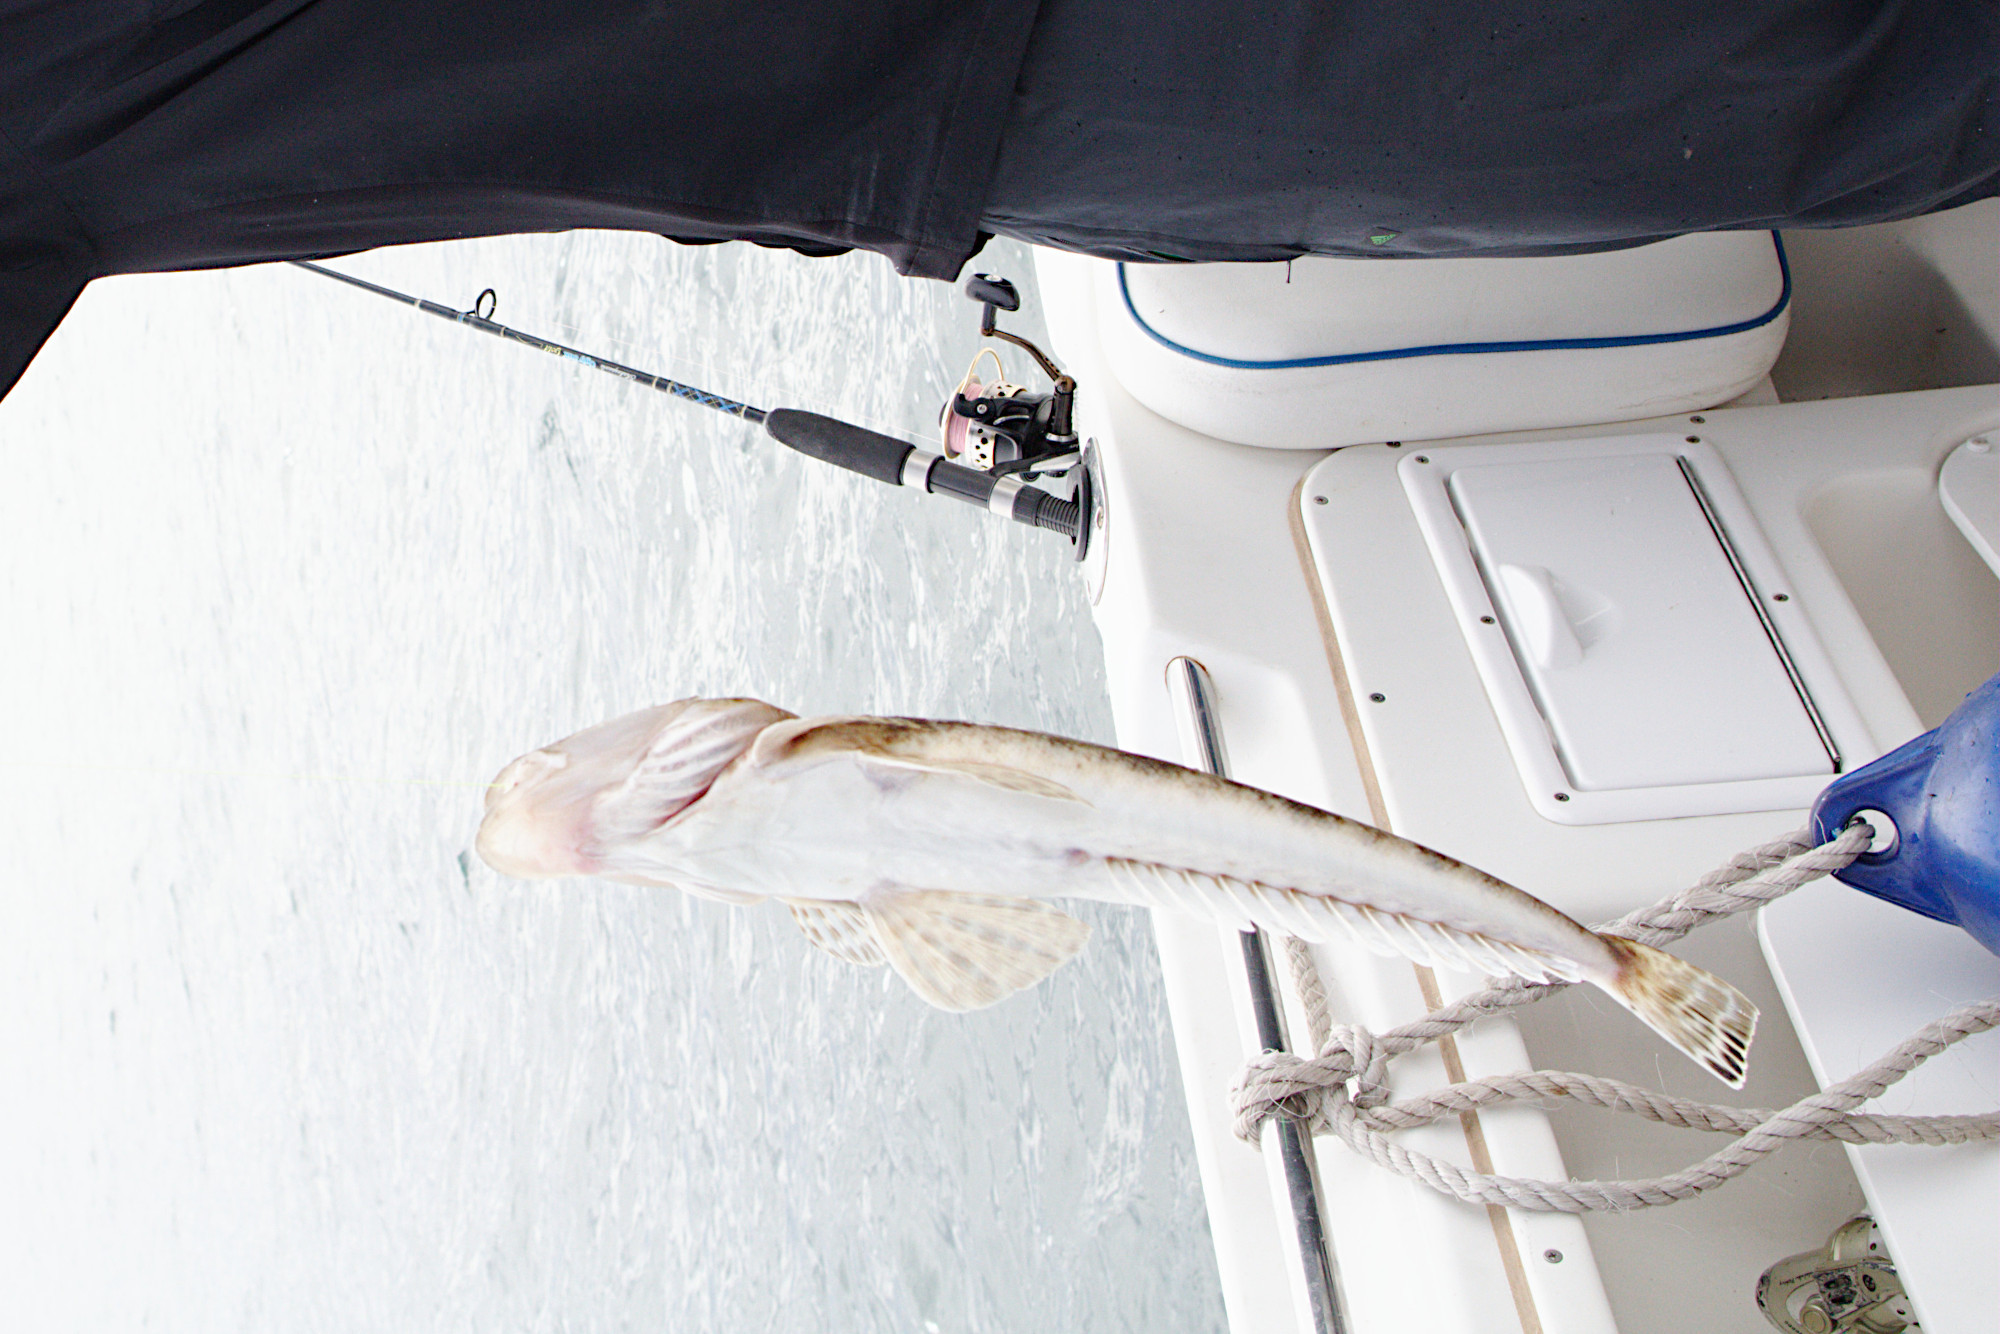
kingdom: Animalia
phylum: Chordata
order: Scorpaeniformes
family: Platycephalidae
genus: Platycephalus
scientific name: Platycephalus speculator
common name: Bluespot flathead
